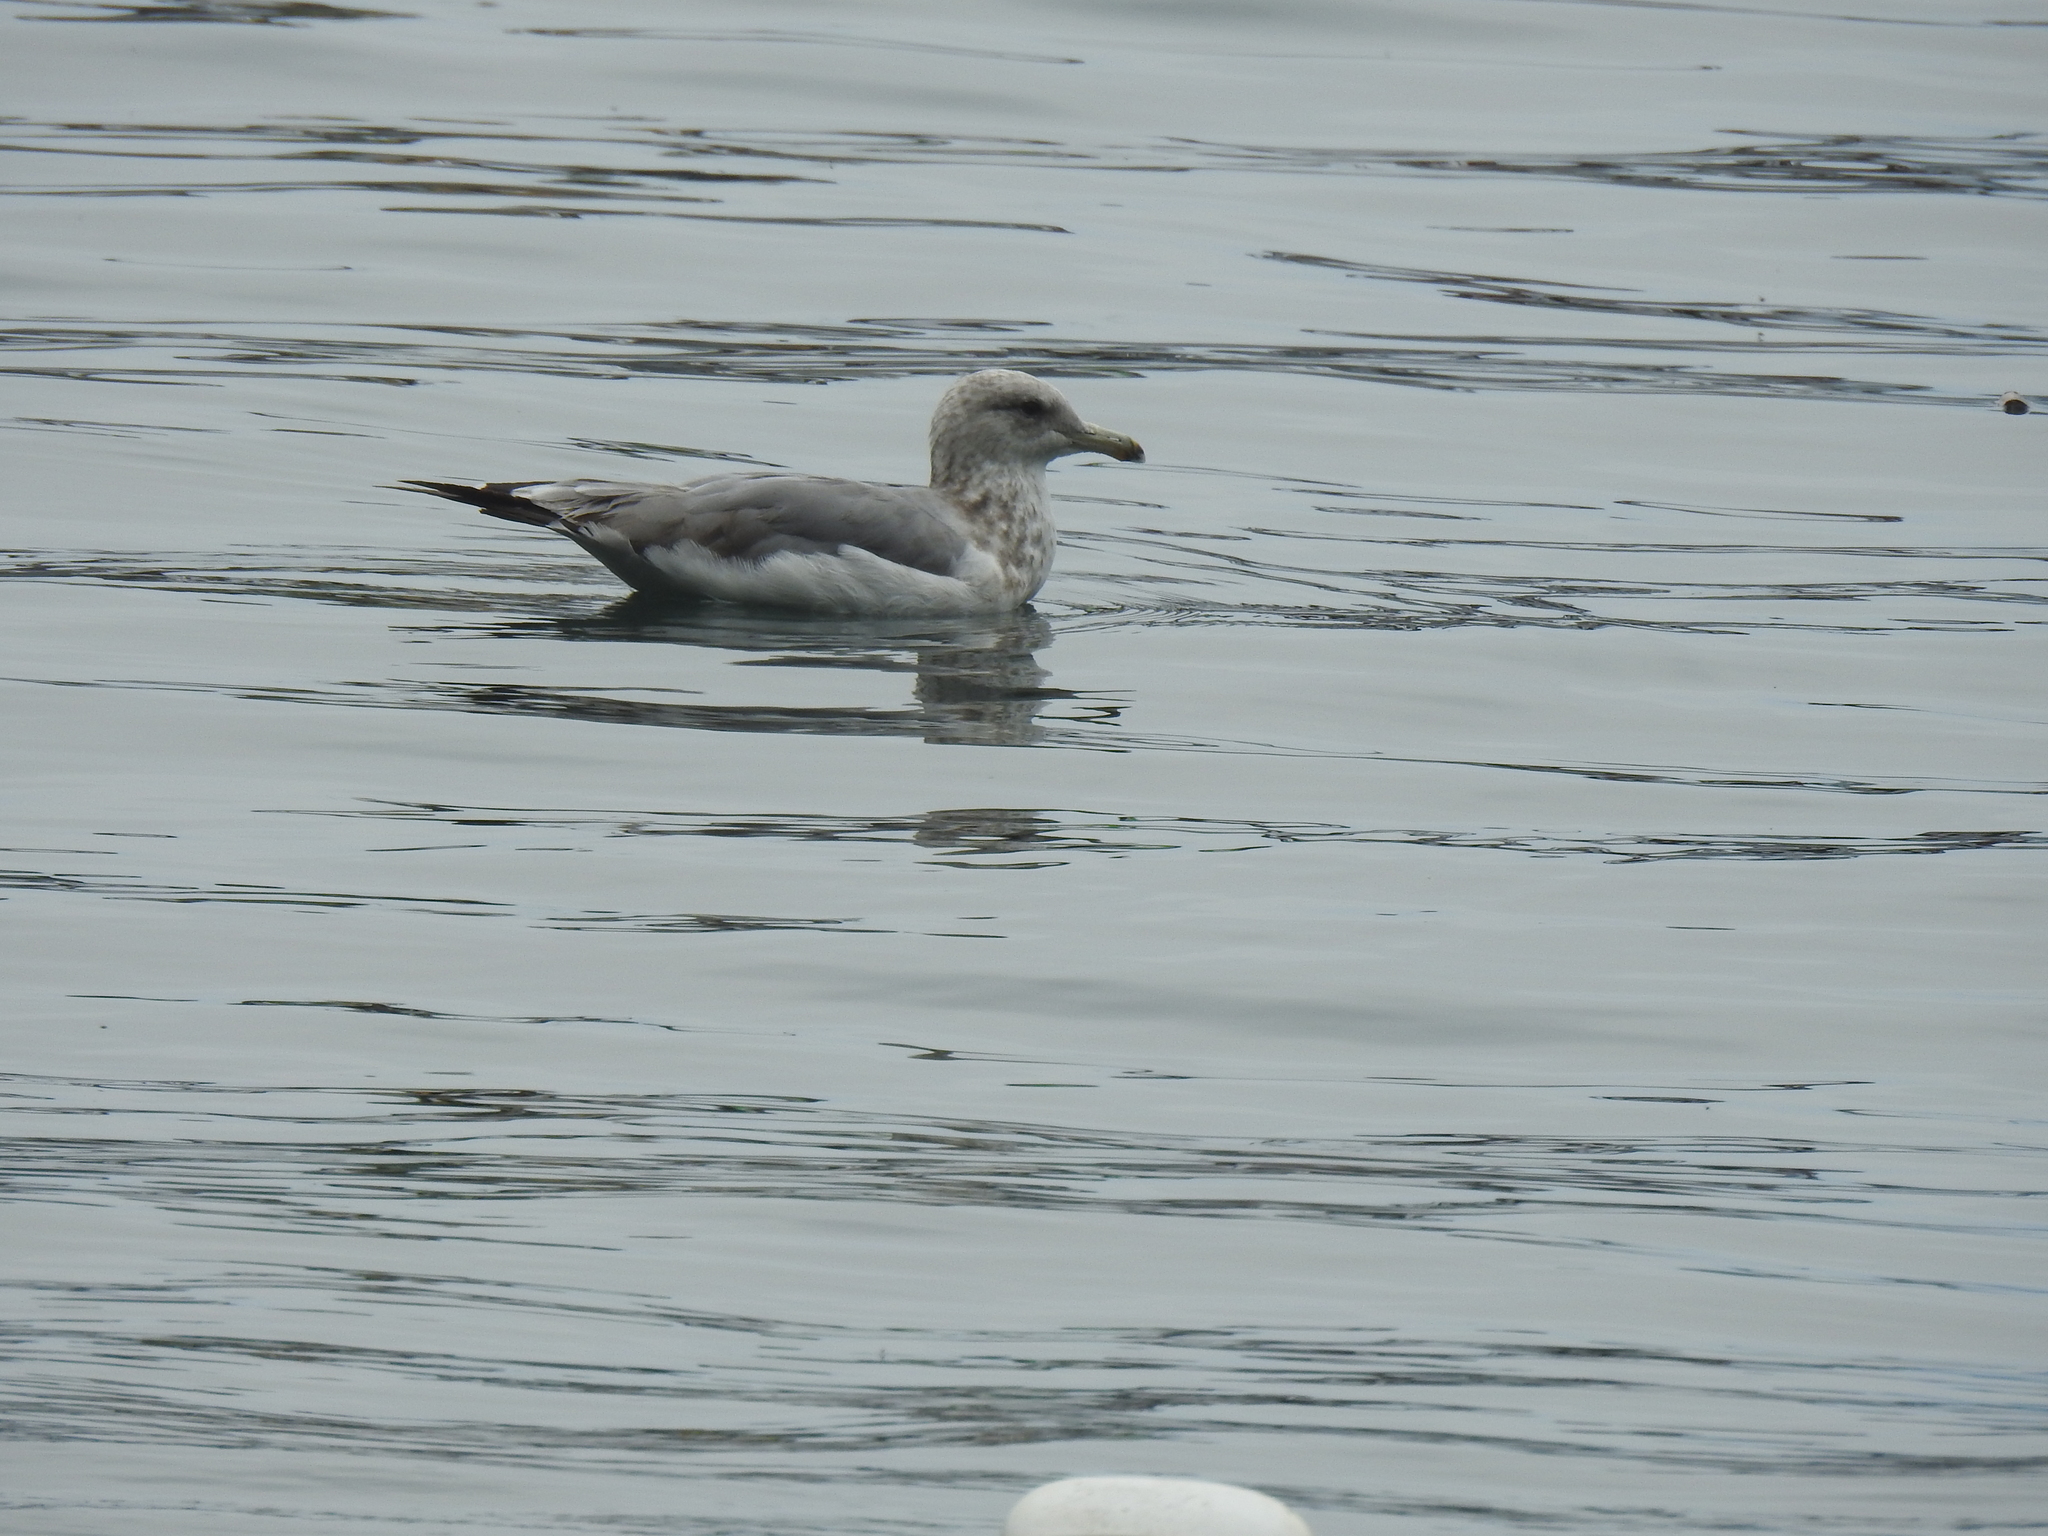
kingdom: Animalia
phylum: Chordata
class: Aves
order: Charadriiformes
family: Laridae
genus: Larus
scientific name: Larus californicus
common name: California gull
